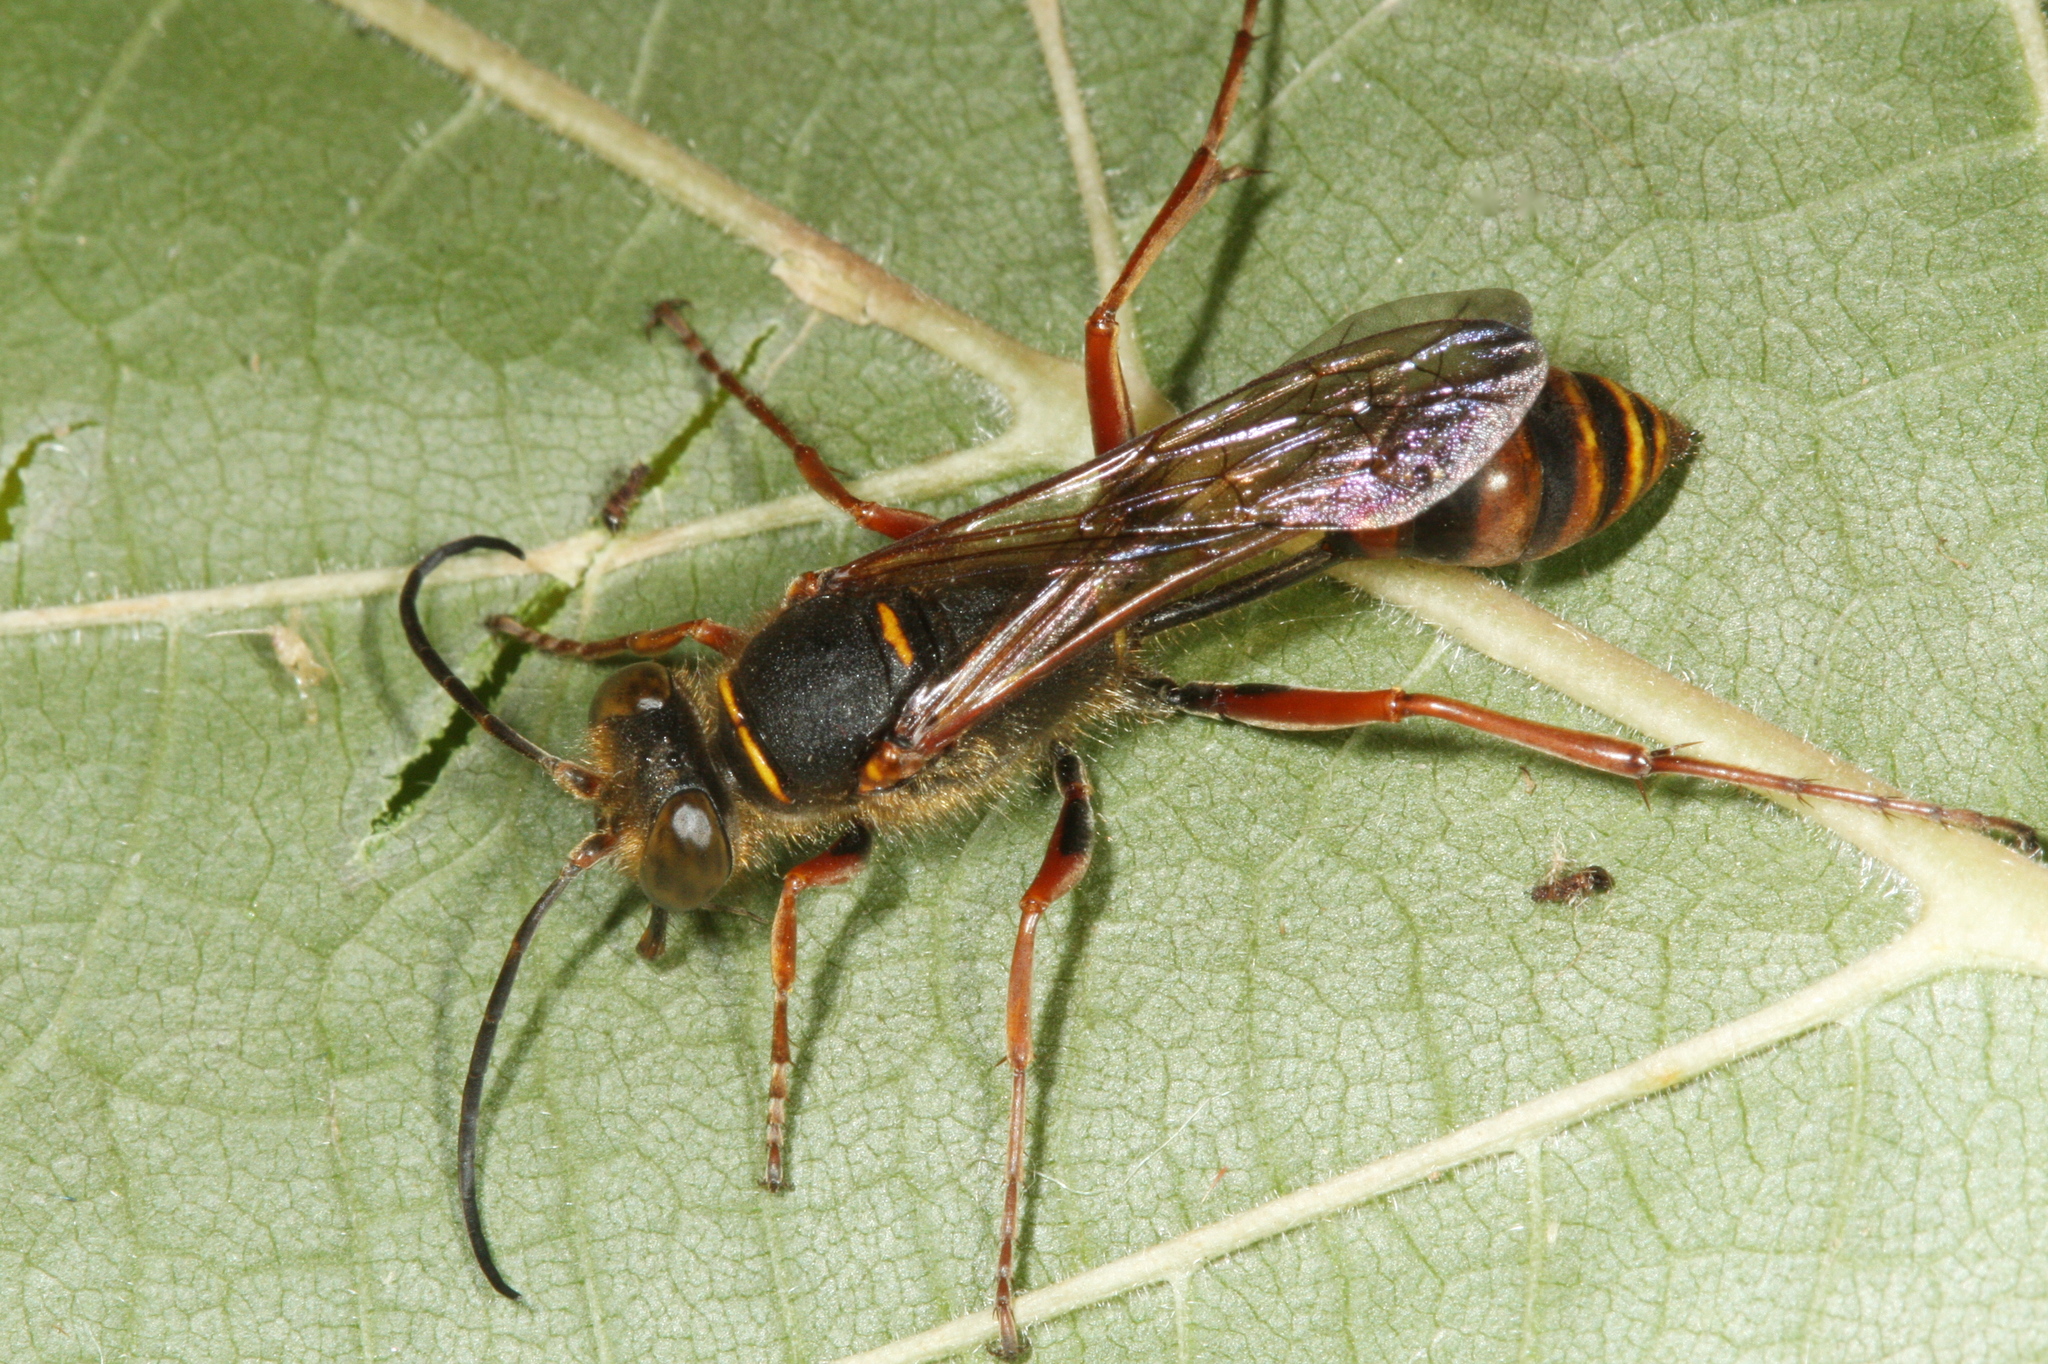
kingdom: Animalia
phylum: Arthropoda
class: Insecta
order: Hymenoptera
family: Sphecidae
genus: Sceliphron
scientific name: Sceliphron curvatum
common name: Pèlopèe
